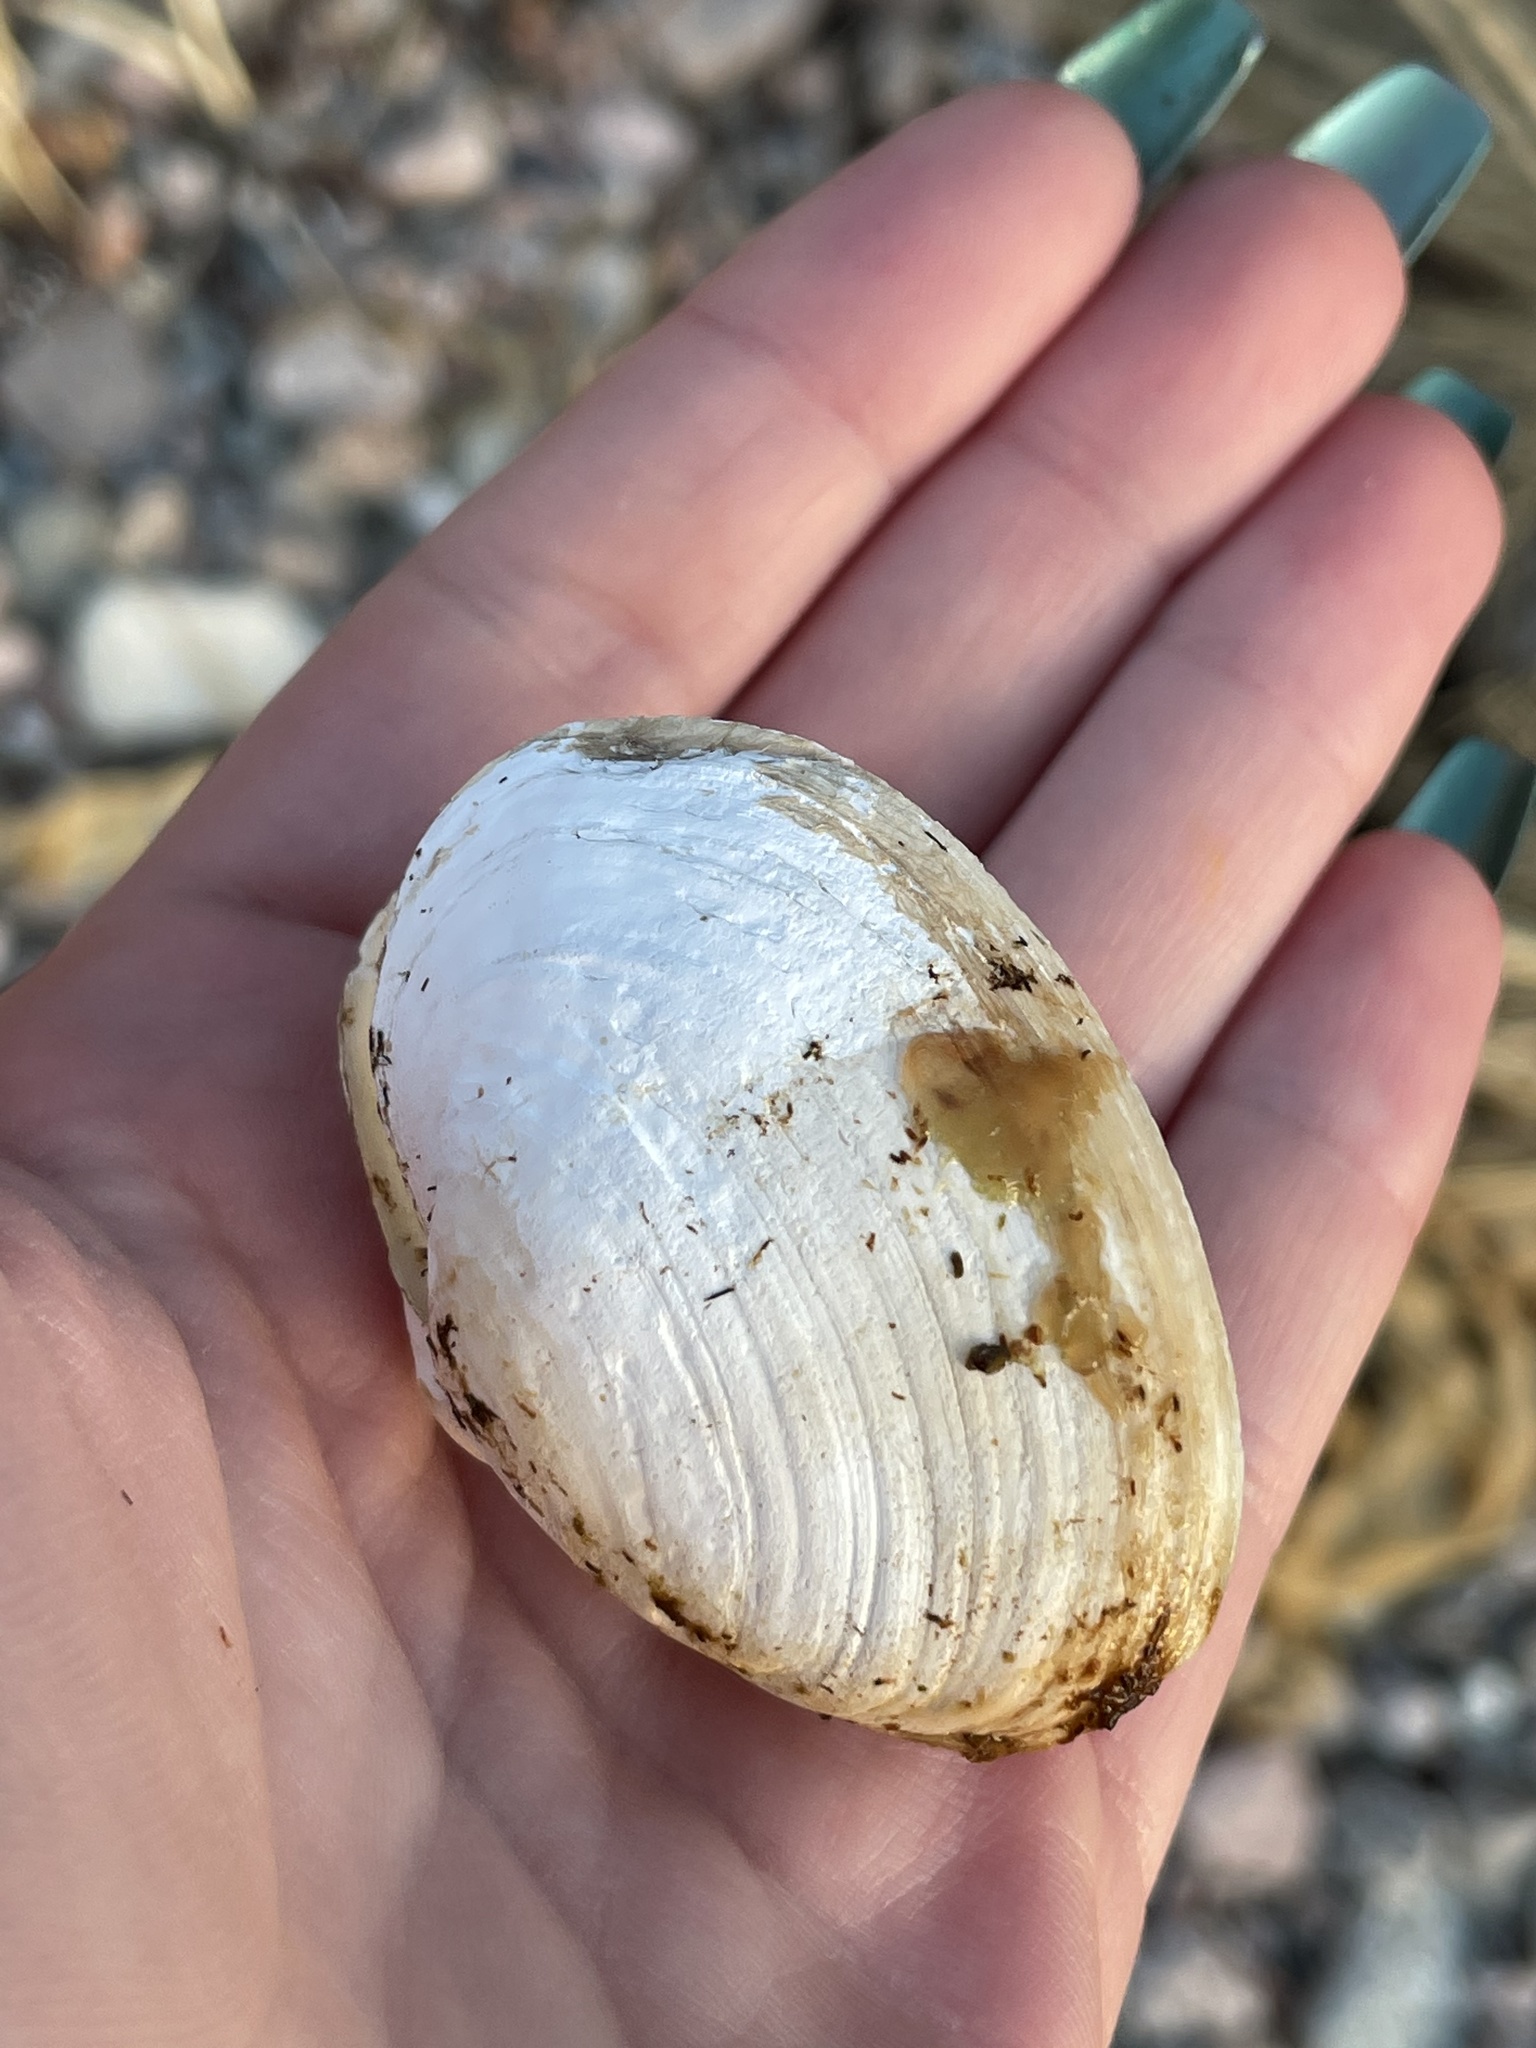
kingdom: Animalia
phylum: Mollusca
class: Bivalvia
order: Myida
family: Myidae
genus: Mya
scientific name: Mya arenaria
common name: Soft-shelled clam
